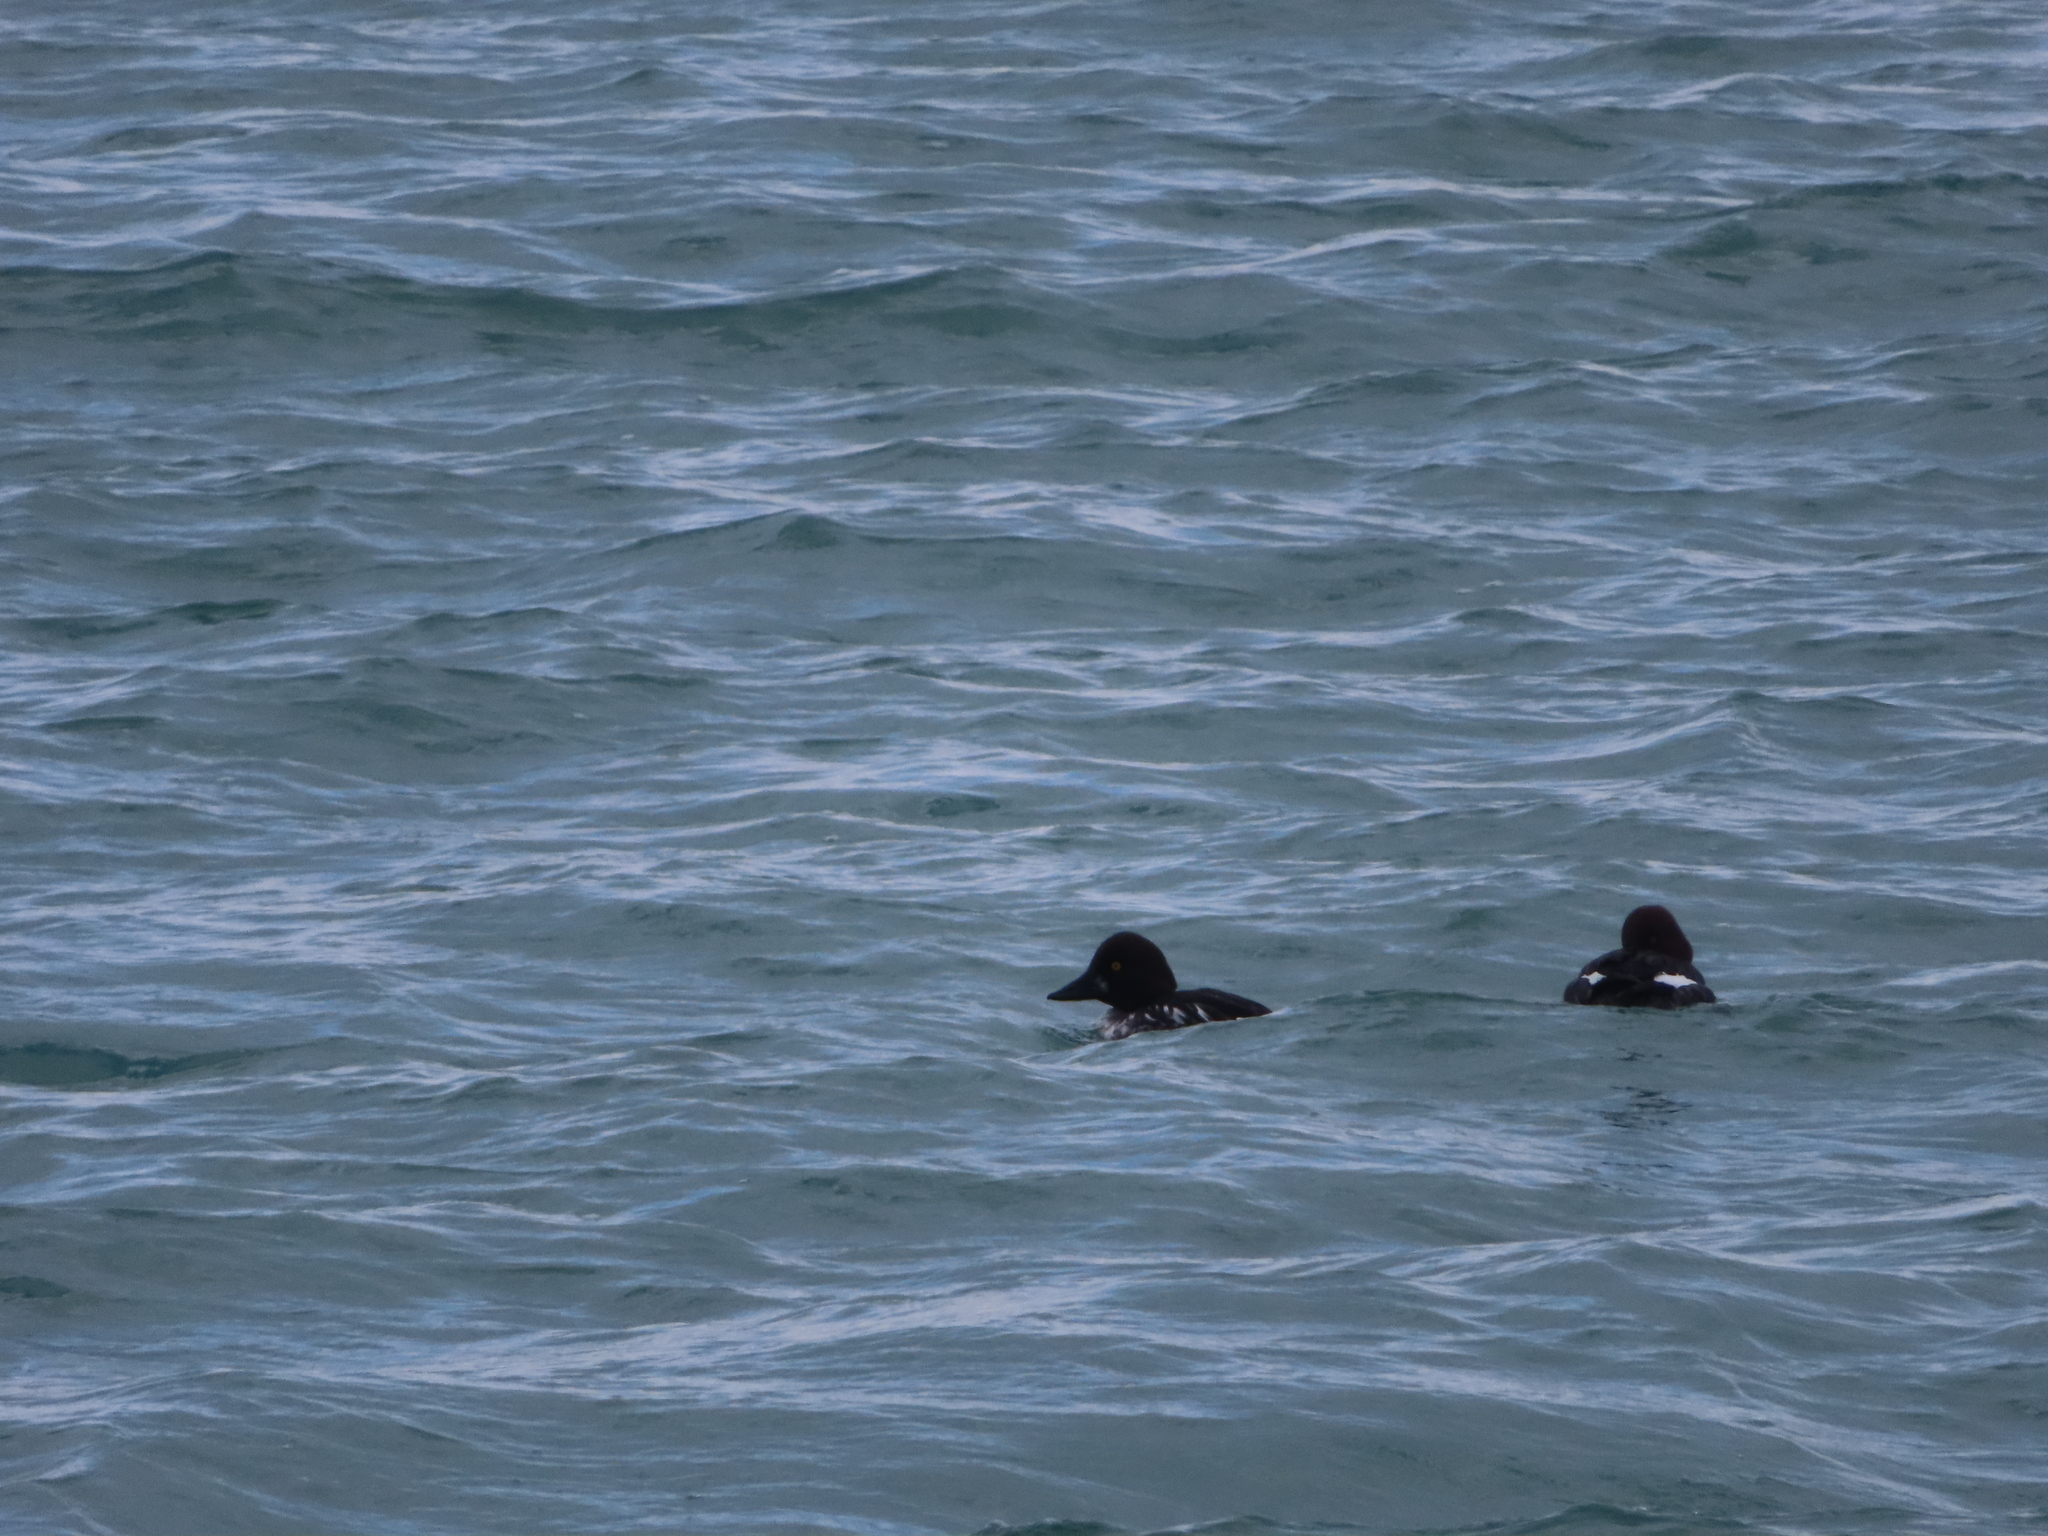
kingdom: Animalia
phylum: Chordata
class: Aves
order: Anseriformes
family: Anatidae
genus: Bucephala
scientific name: Bucephala clangula
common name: Common goldeneye
